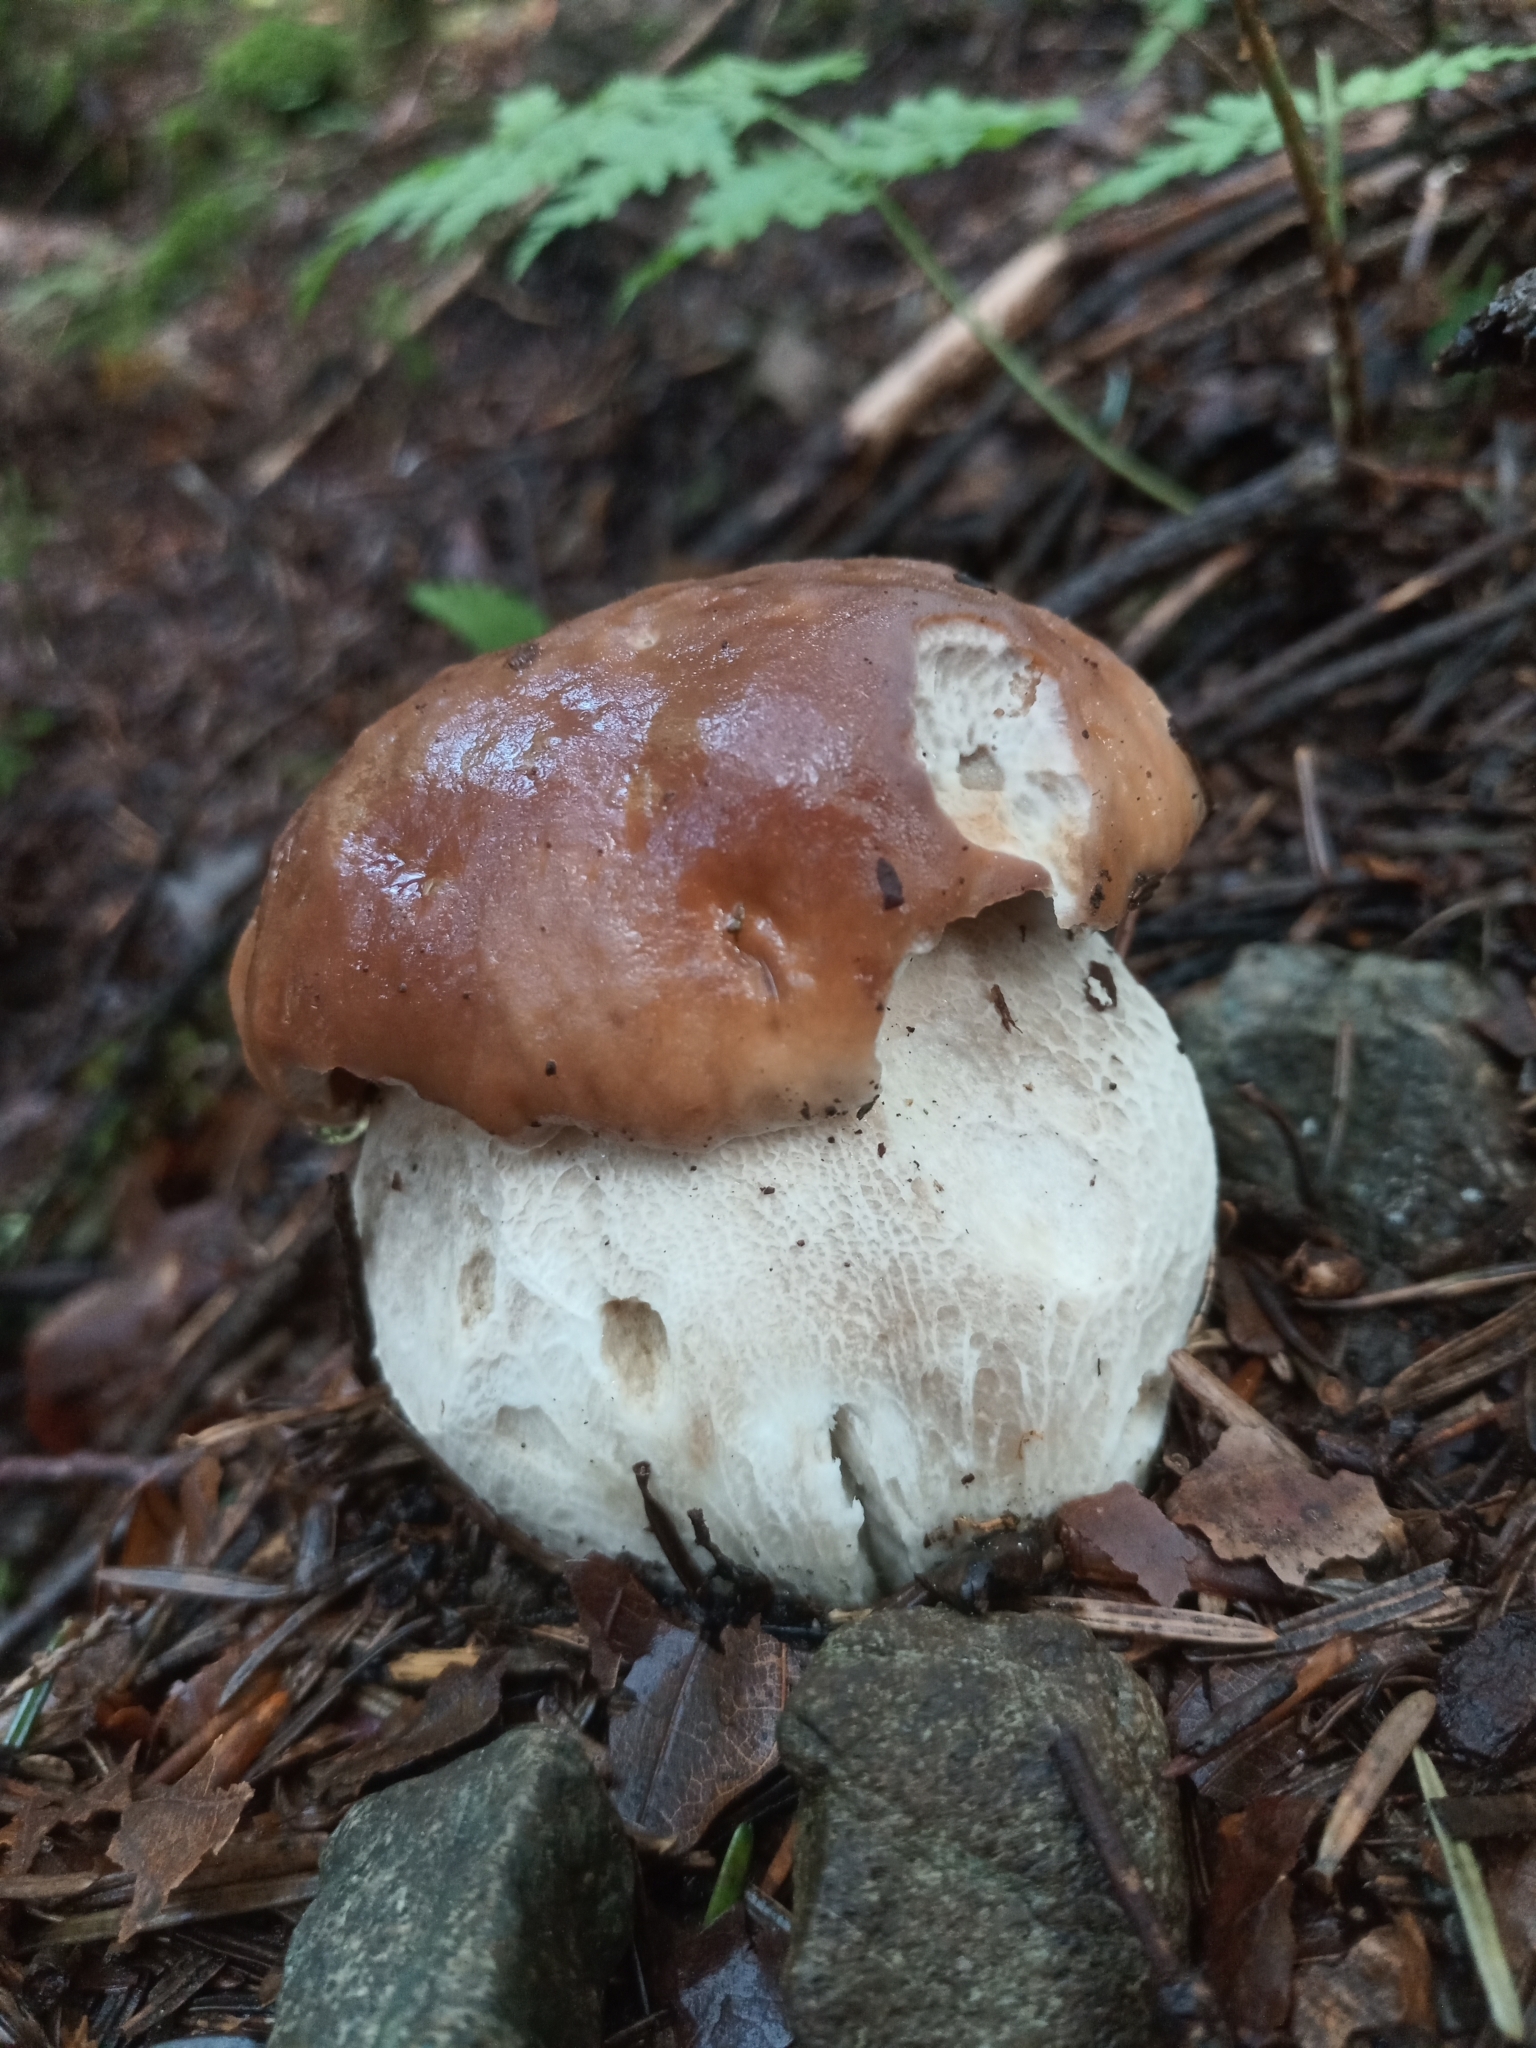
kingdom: Fungi
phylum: Basidiomycota
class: Agaricomycetes
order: Boletales
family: Boletaceae
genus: Boletus
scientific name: Boletus edulis
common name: Cep
